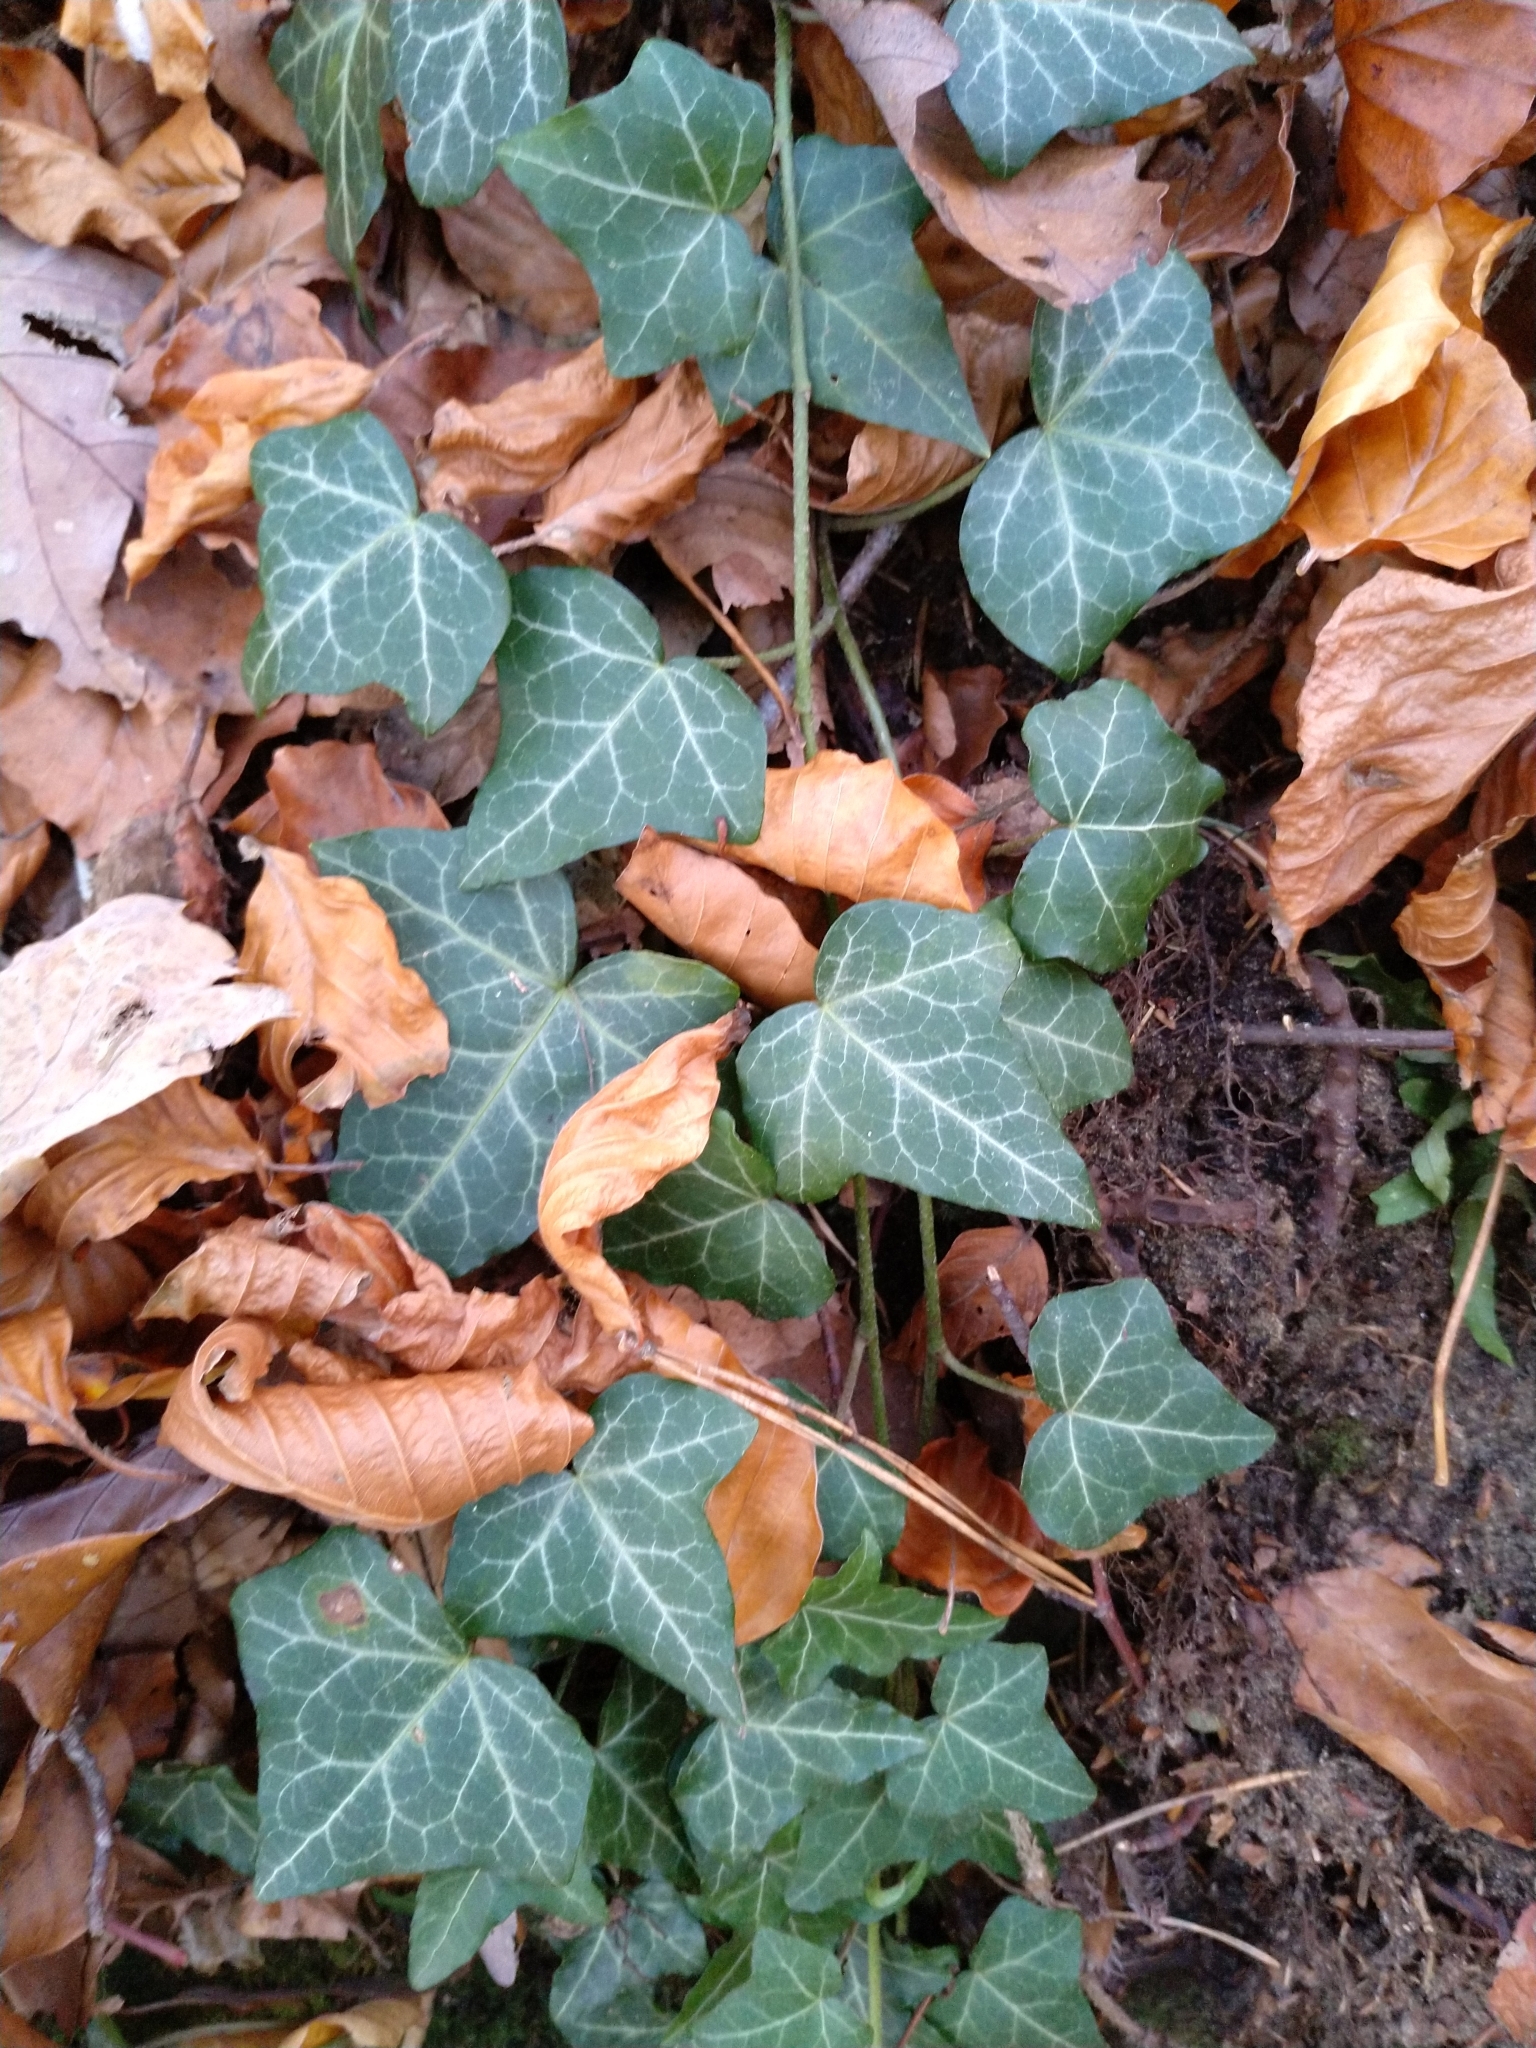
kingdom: Plantae
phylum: Tracheophyta
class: Magnoliopsida
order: Apiales
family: Araliaceae
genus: Hedera
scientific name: Hedera helix
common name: Ivy
